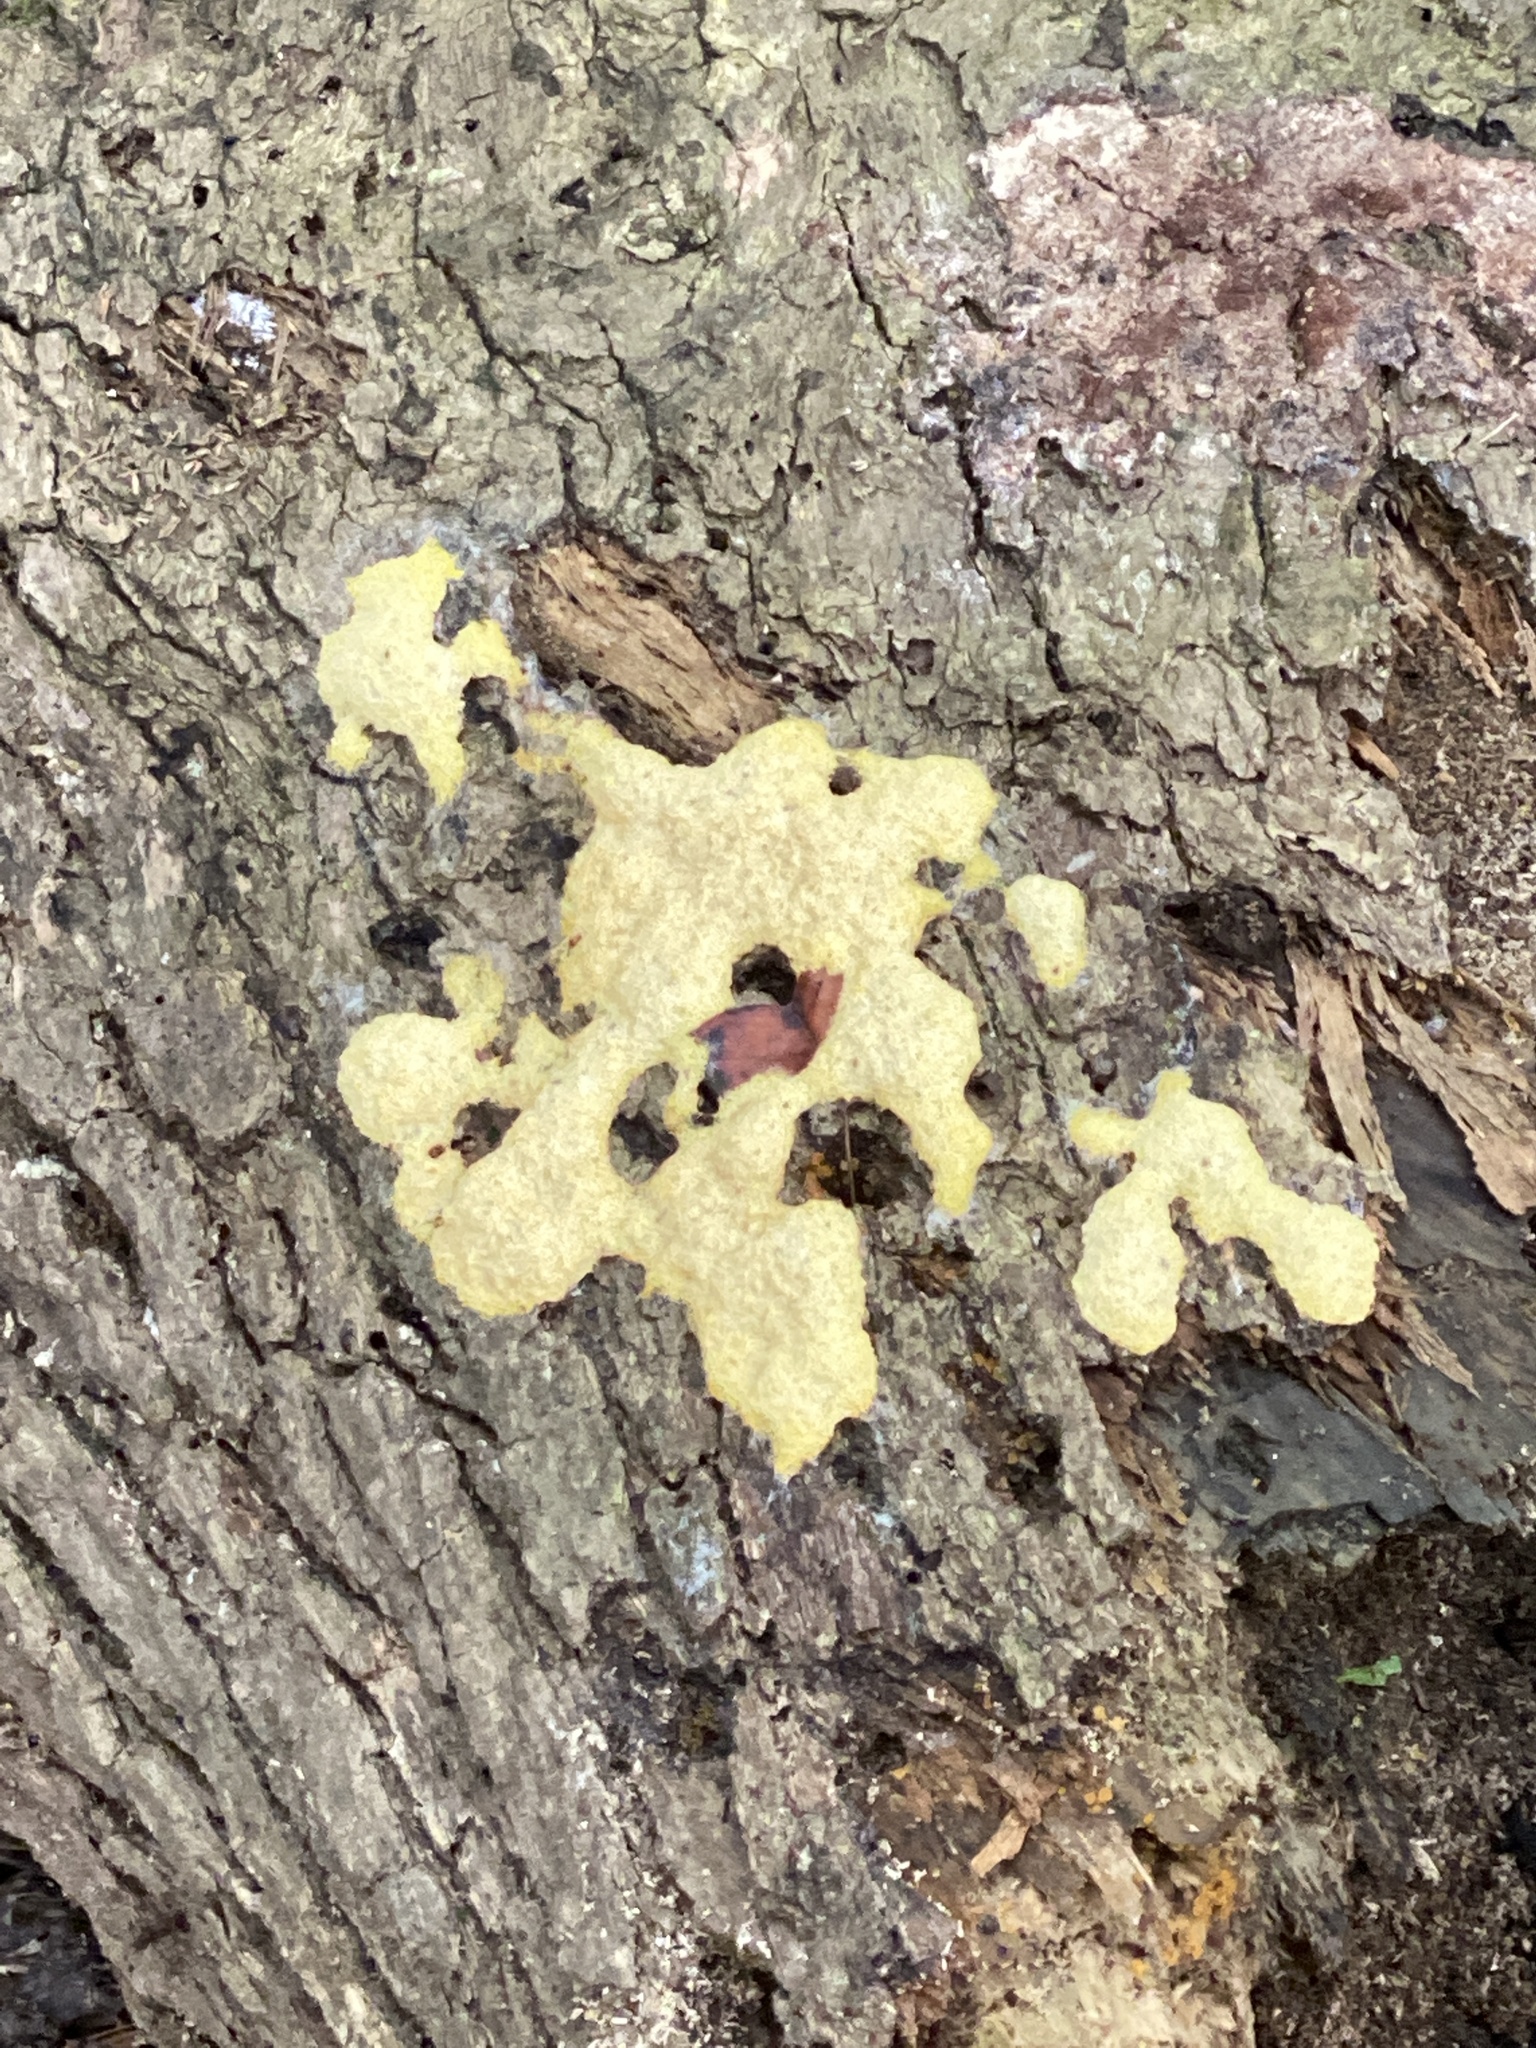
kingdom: Protozoa
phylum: Mycetozoa
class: Myxomycetes
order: Physarales
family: Physaraceae
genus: Fuligo
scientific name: Fuligo septica
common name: Dog vomit slime mold
